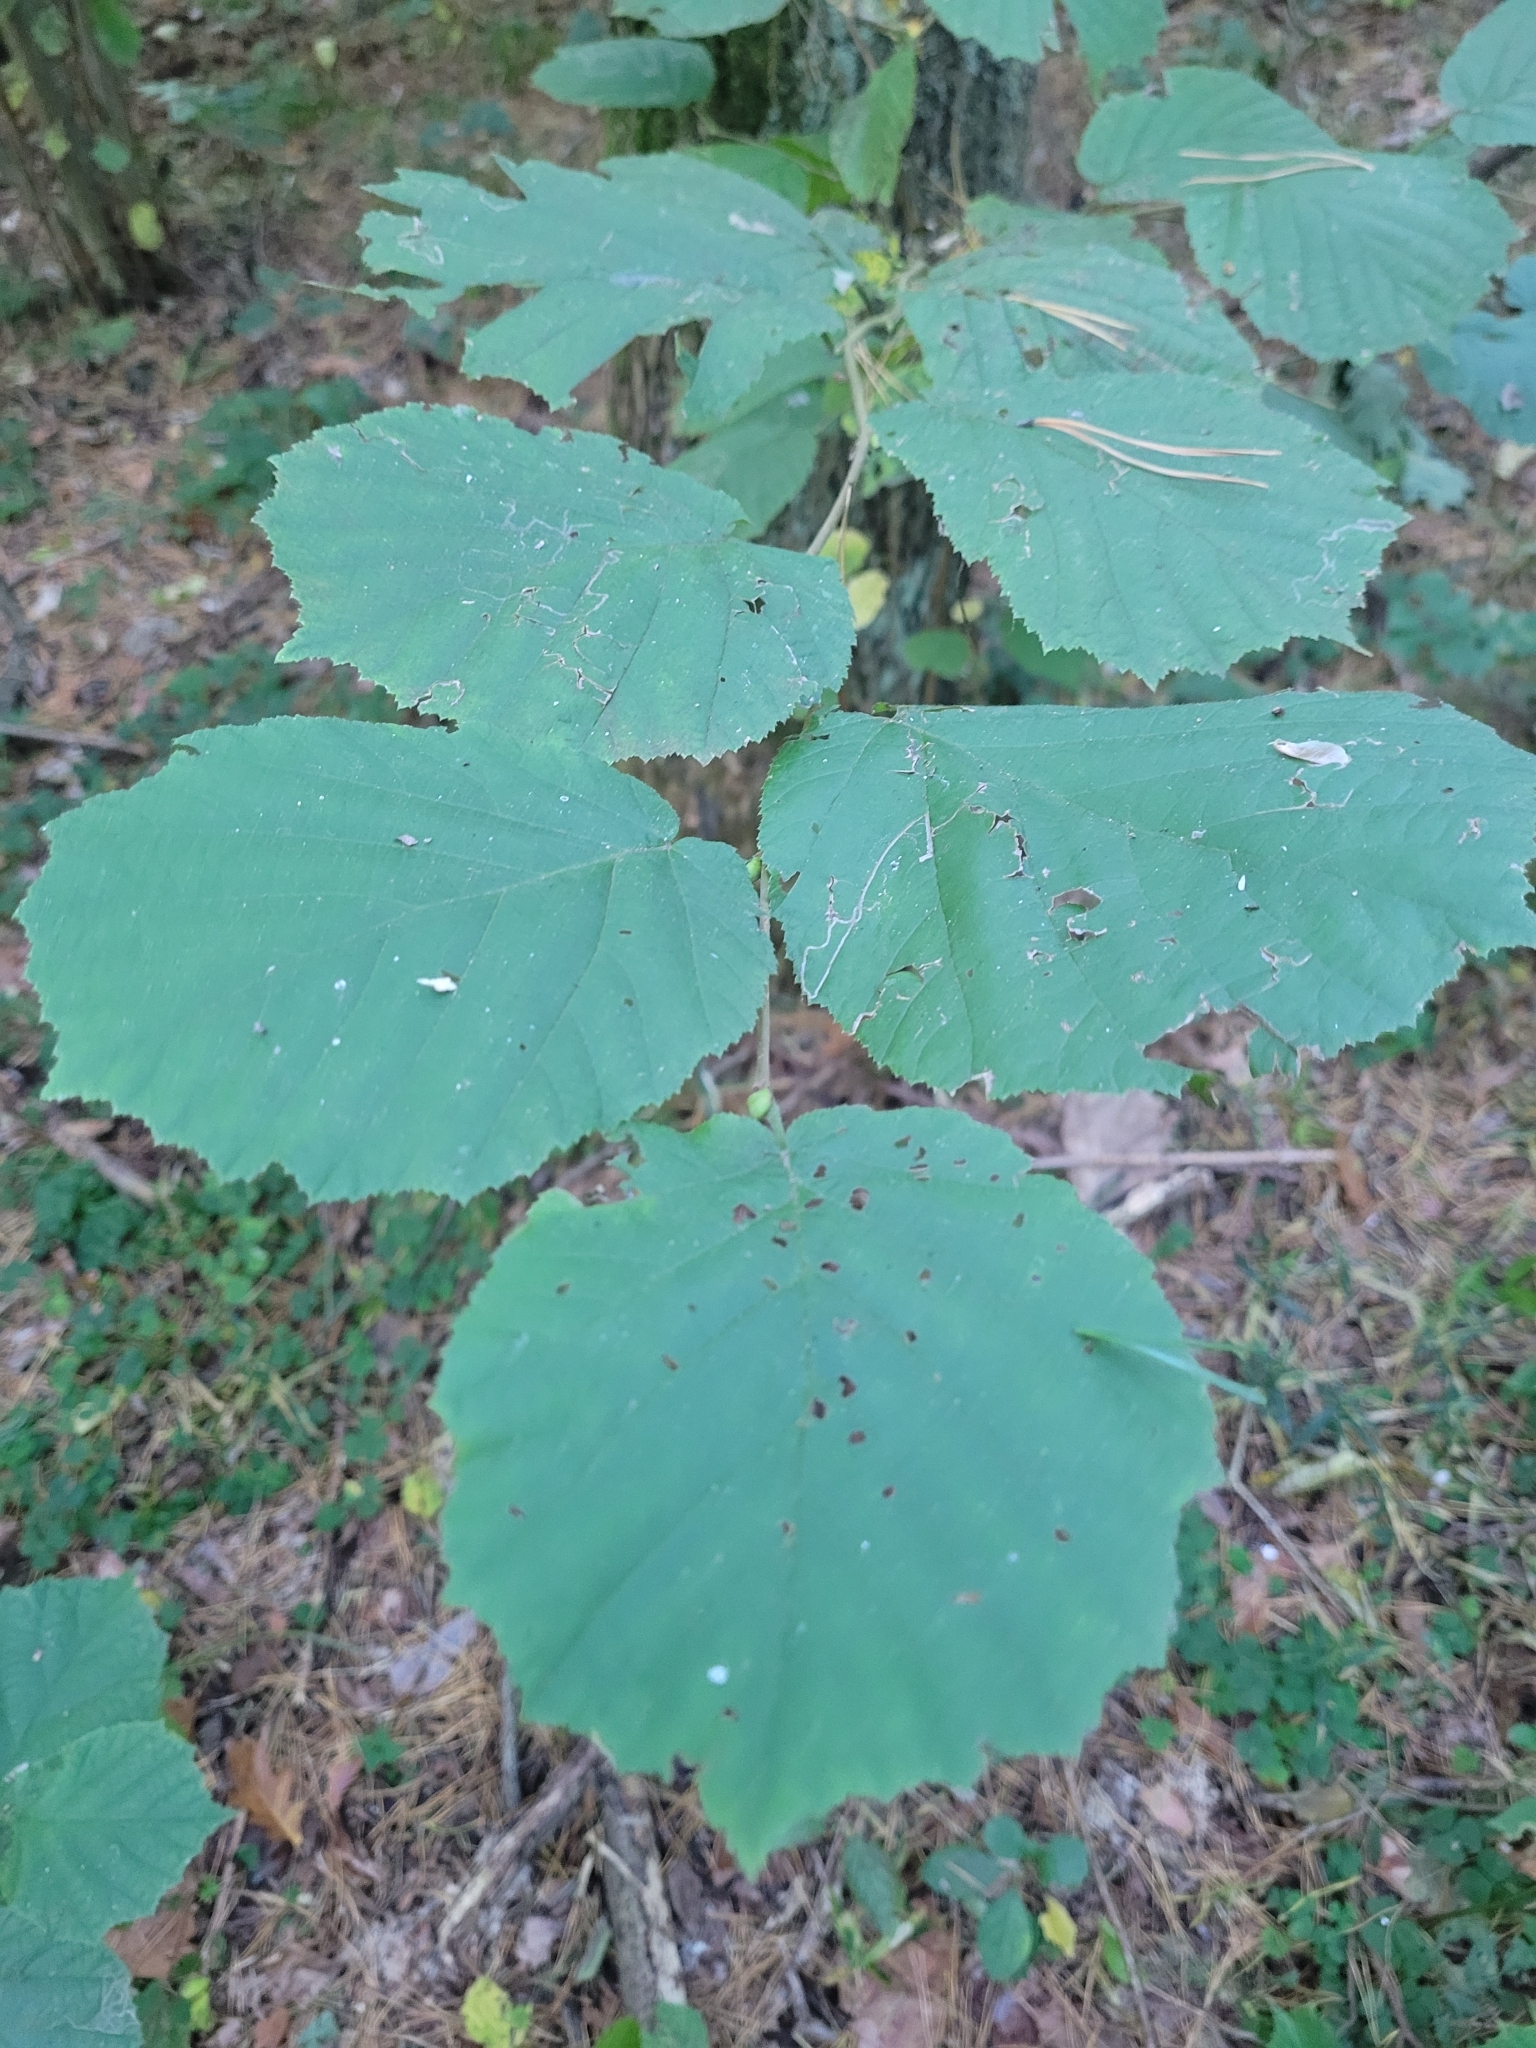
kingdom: Plantae
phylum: Tracheophyta
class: Magnoliopsida
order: Fagales
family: Betulaceae
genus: Corylus
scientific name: Corylus avellana
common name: European hazel
